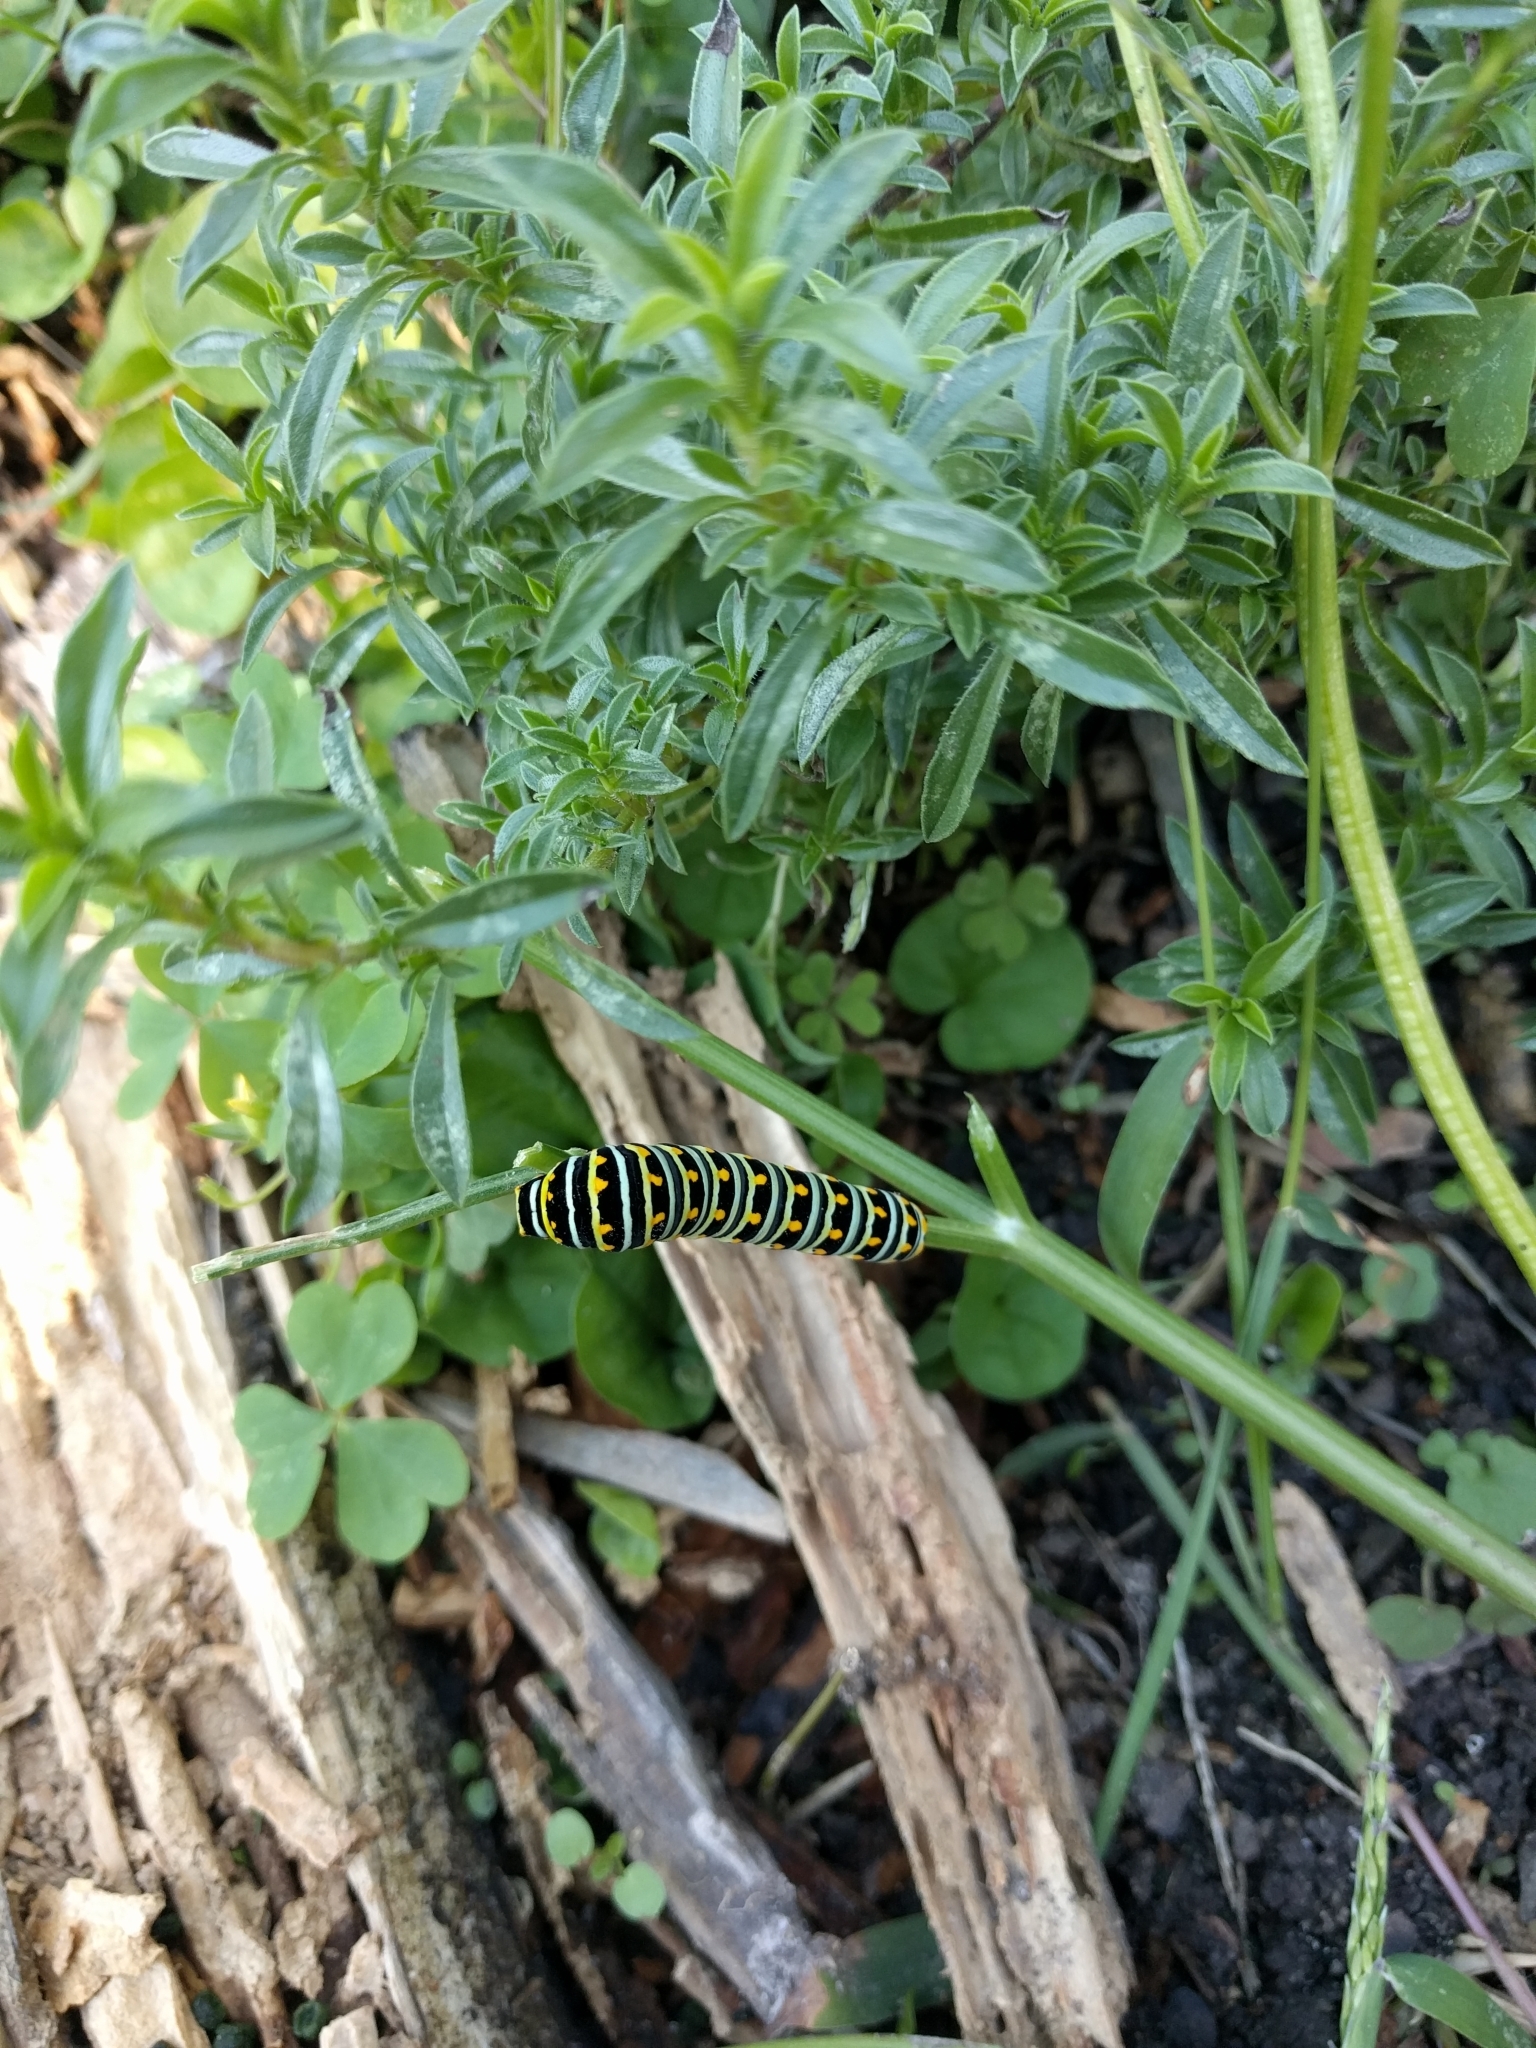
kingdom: Animalia
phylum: Arthropoda
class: Insecta
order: Lepidoptera
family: Papilionidae
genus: Papilio
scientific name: Papilio polyxenes
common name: Black swallowtail
